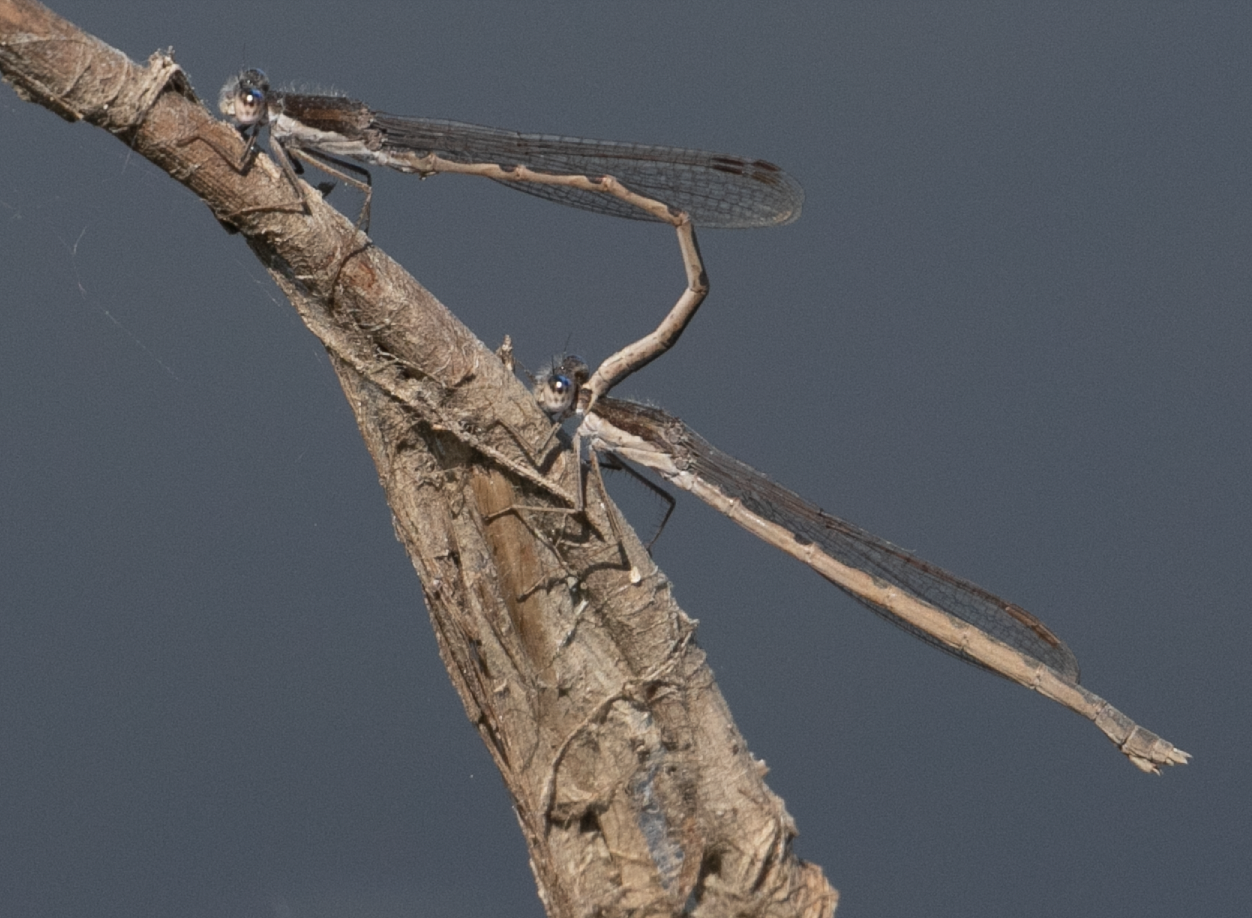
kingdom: Animalia
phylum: Arthropoda
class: Insecta
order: Odonata
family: Lestidae
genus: Sympecma
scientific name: Sympecma fusca
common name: Common winter damsel
